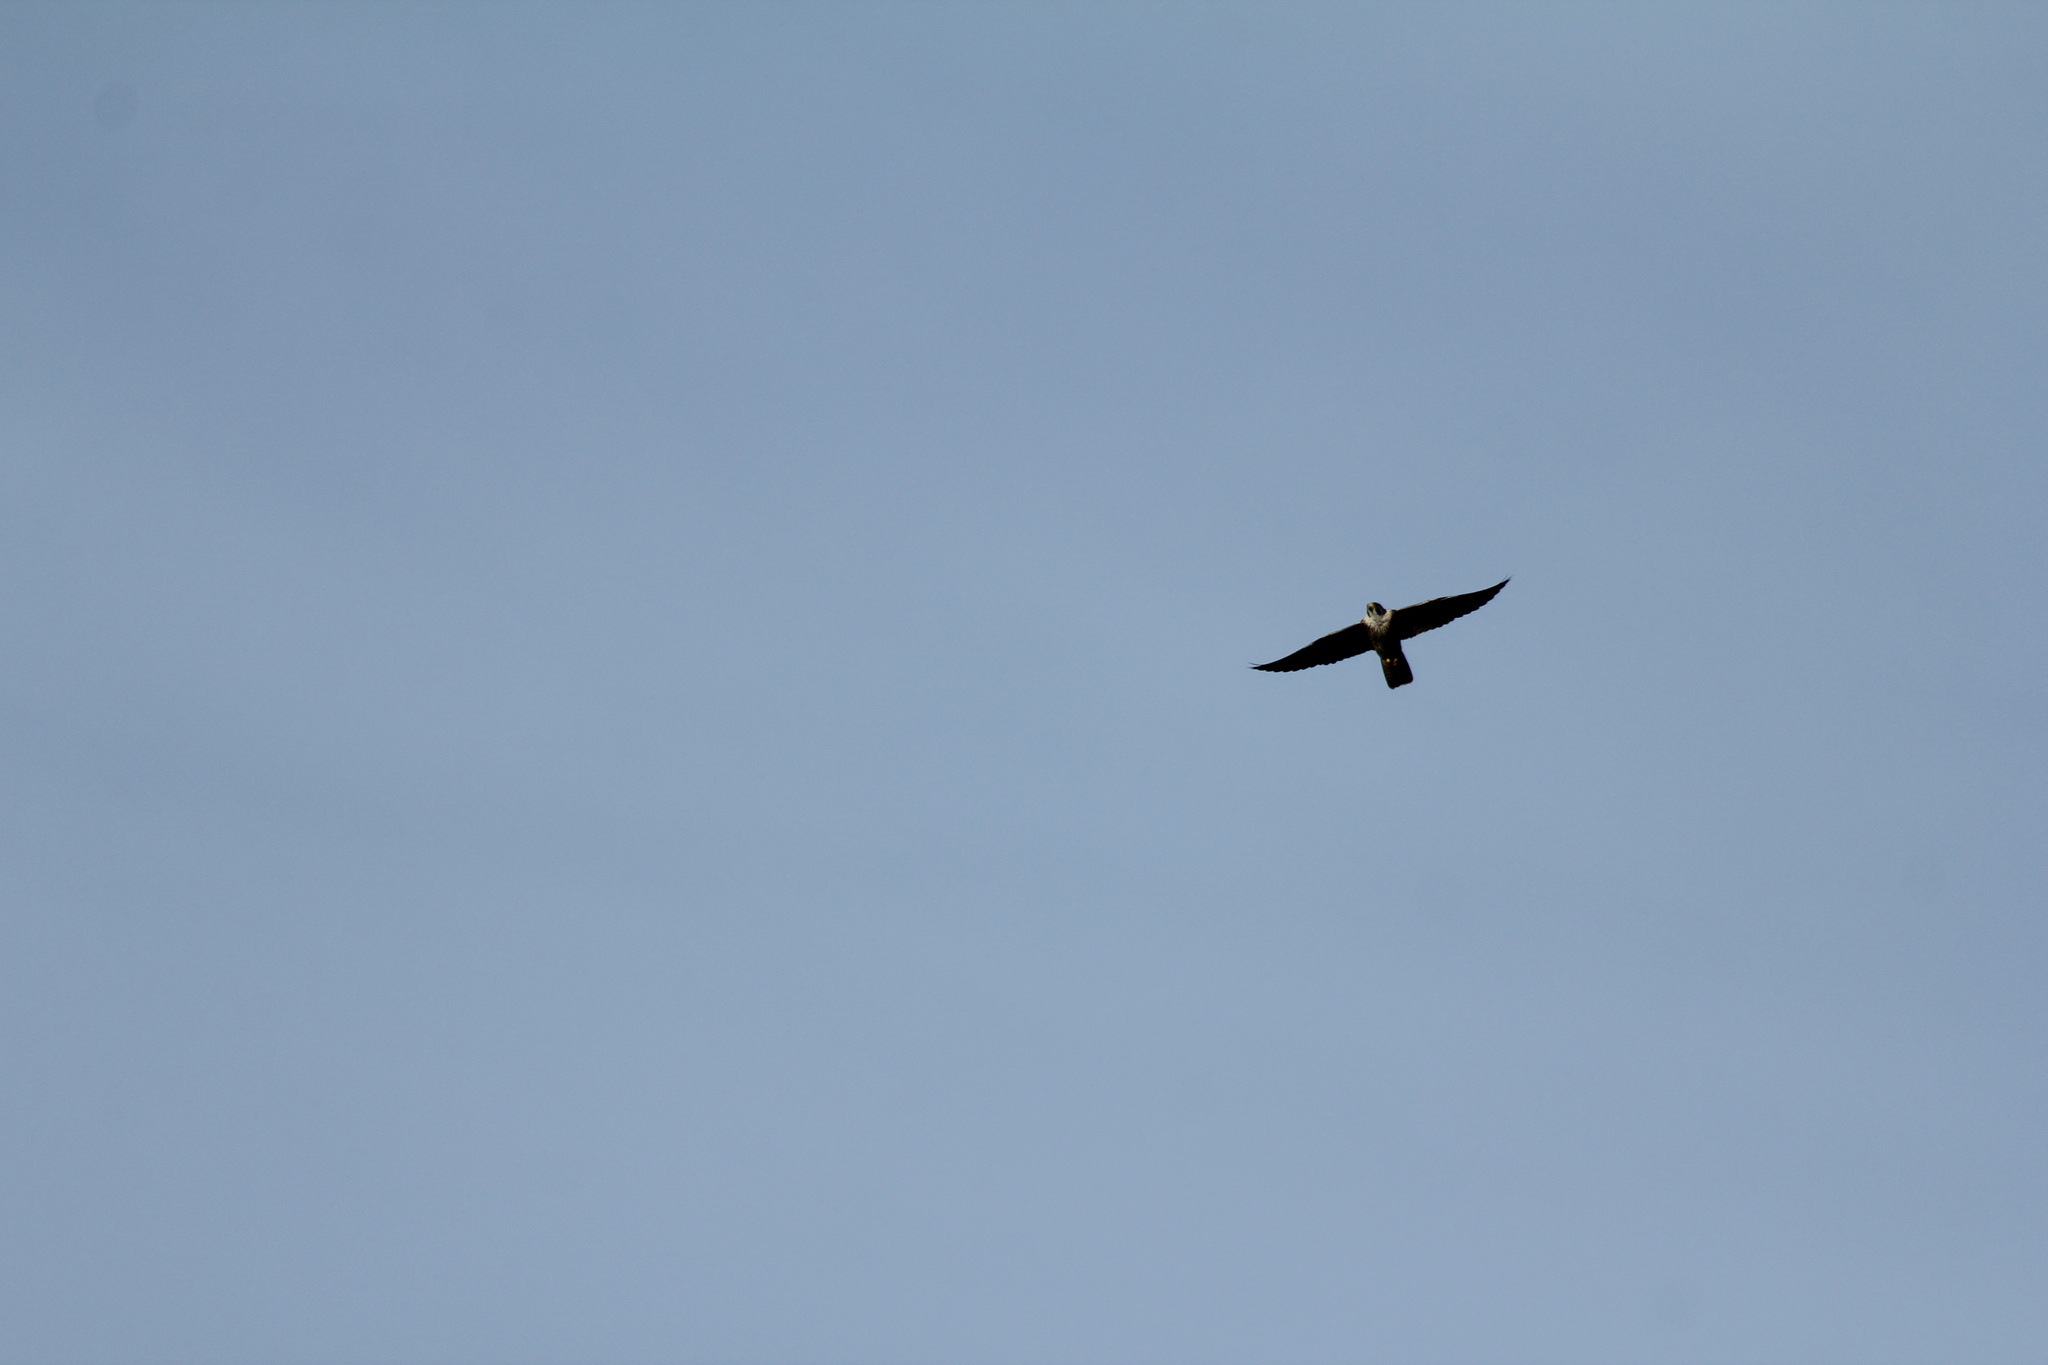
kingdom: Animalia
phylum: Chordata
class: Aves
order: Falconiformes
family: Falconidae
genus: Falco
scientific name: Falco peregrinus
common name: Peregrine falcon
